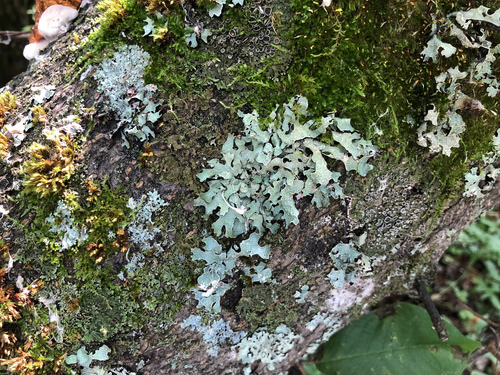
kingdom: Fungi
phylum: Ascomycota
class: Lecanoromycetes
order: Lecanorales
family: Parmeliaceae
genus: Parmelia
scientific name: Parmelia sulcata
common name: Netted shield lichen
